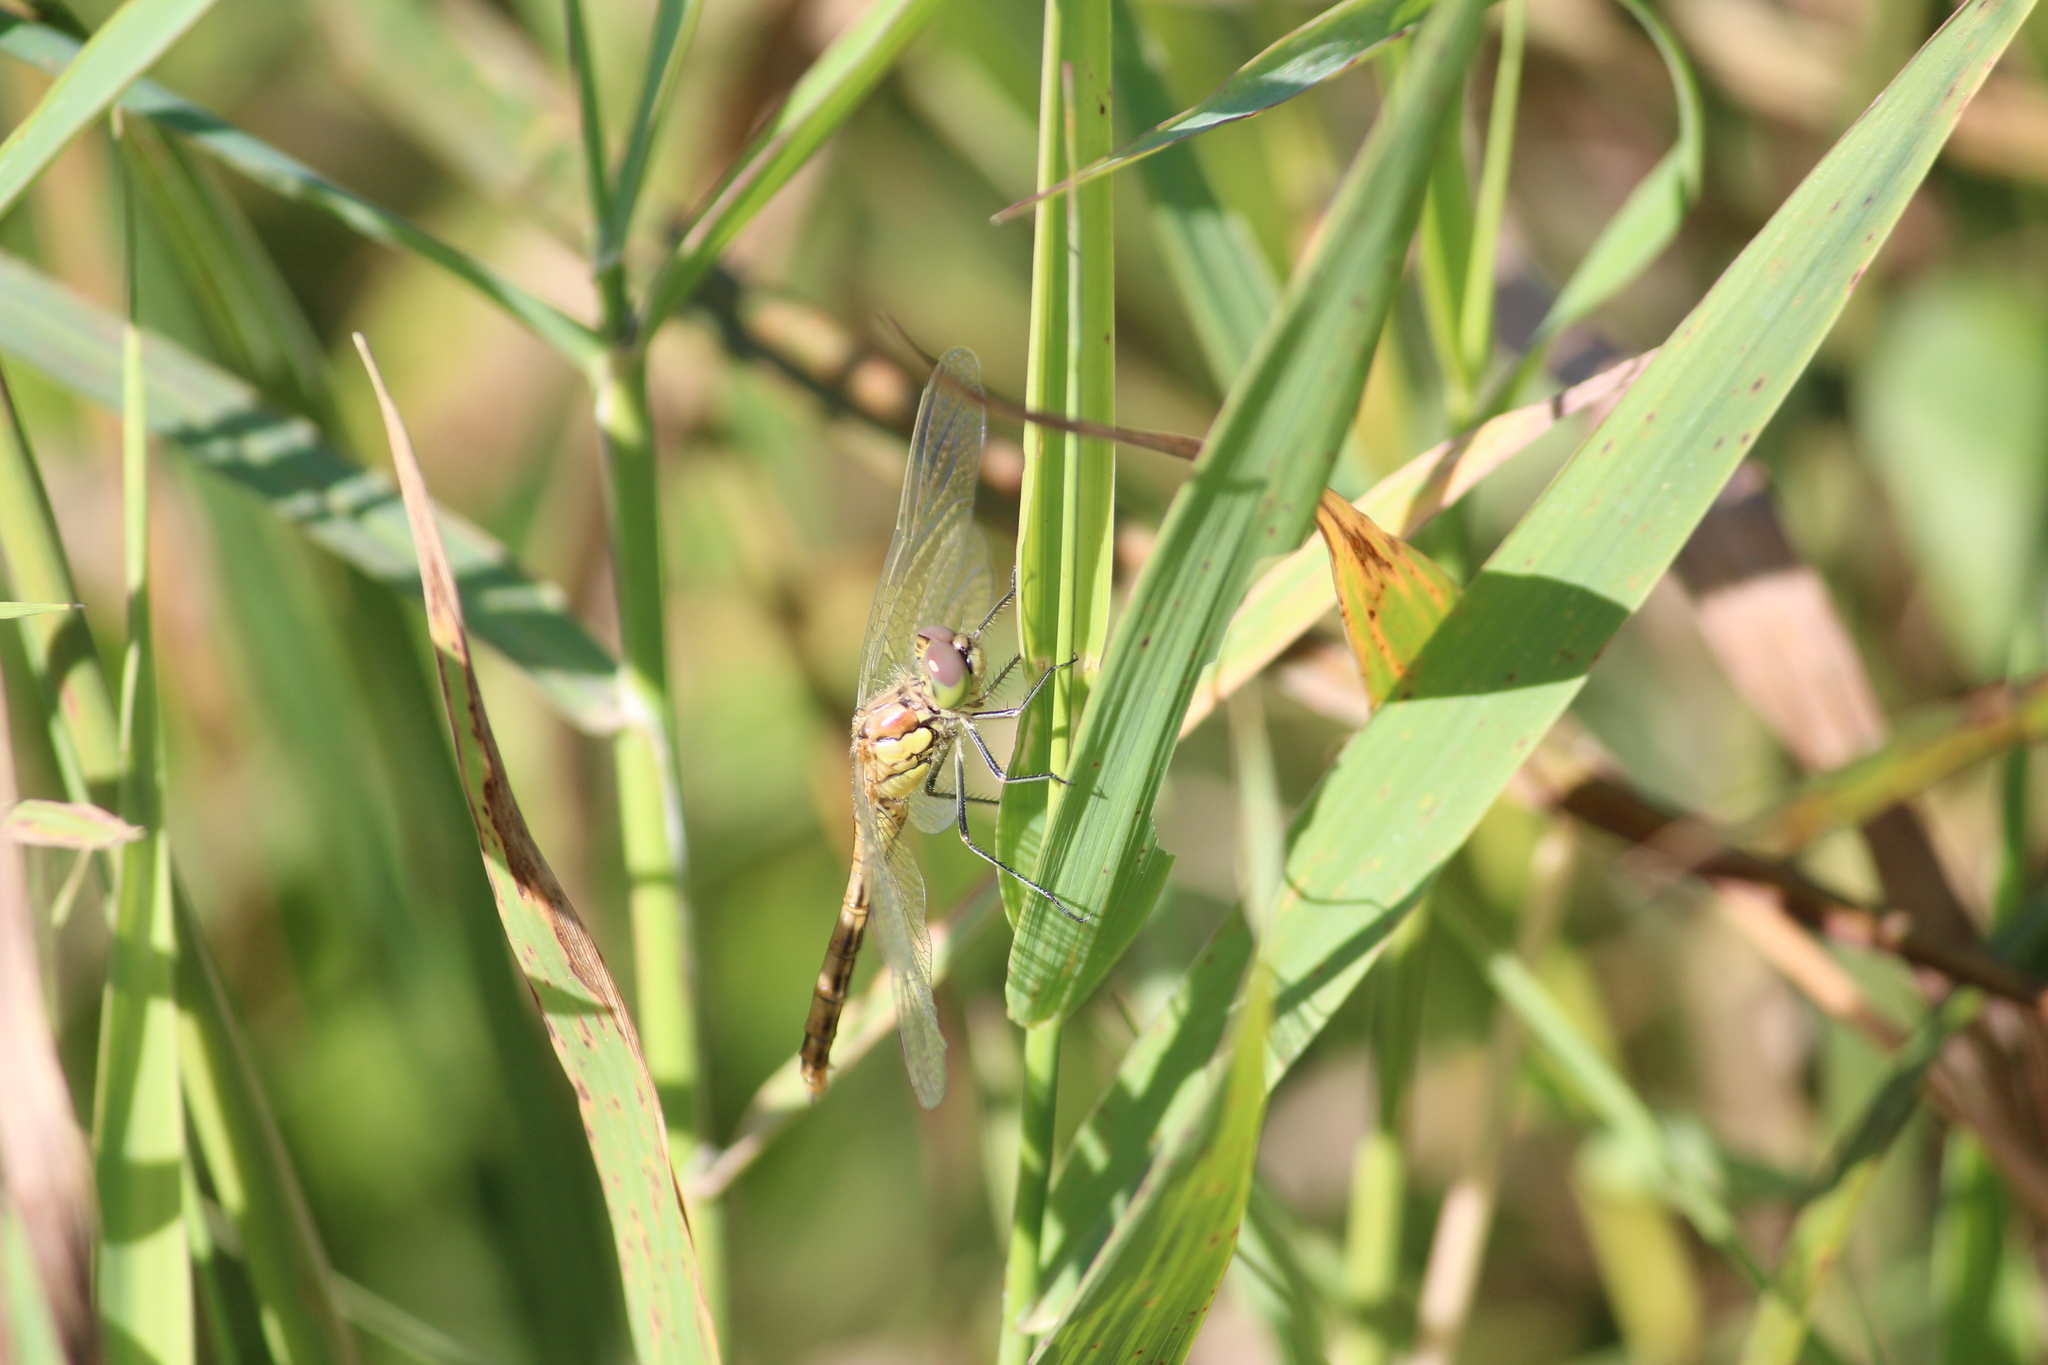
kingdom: Animalia
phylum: Arthropoda
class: Insecta
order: Odonata
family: Libellulidae
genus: Sympetrum
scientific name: Sympetrum vulgatum
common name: Vagrant darter
